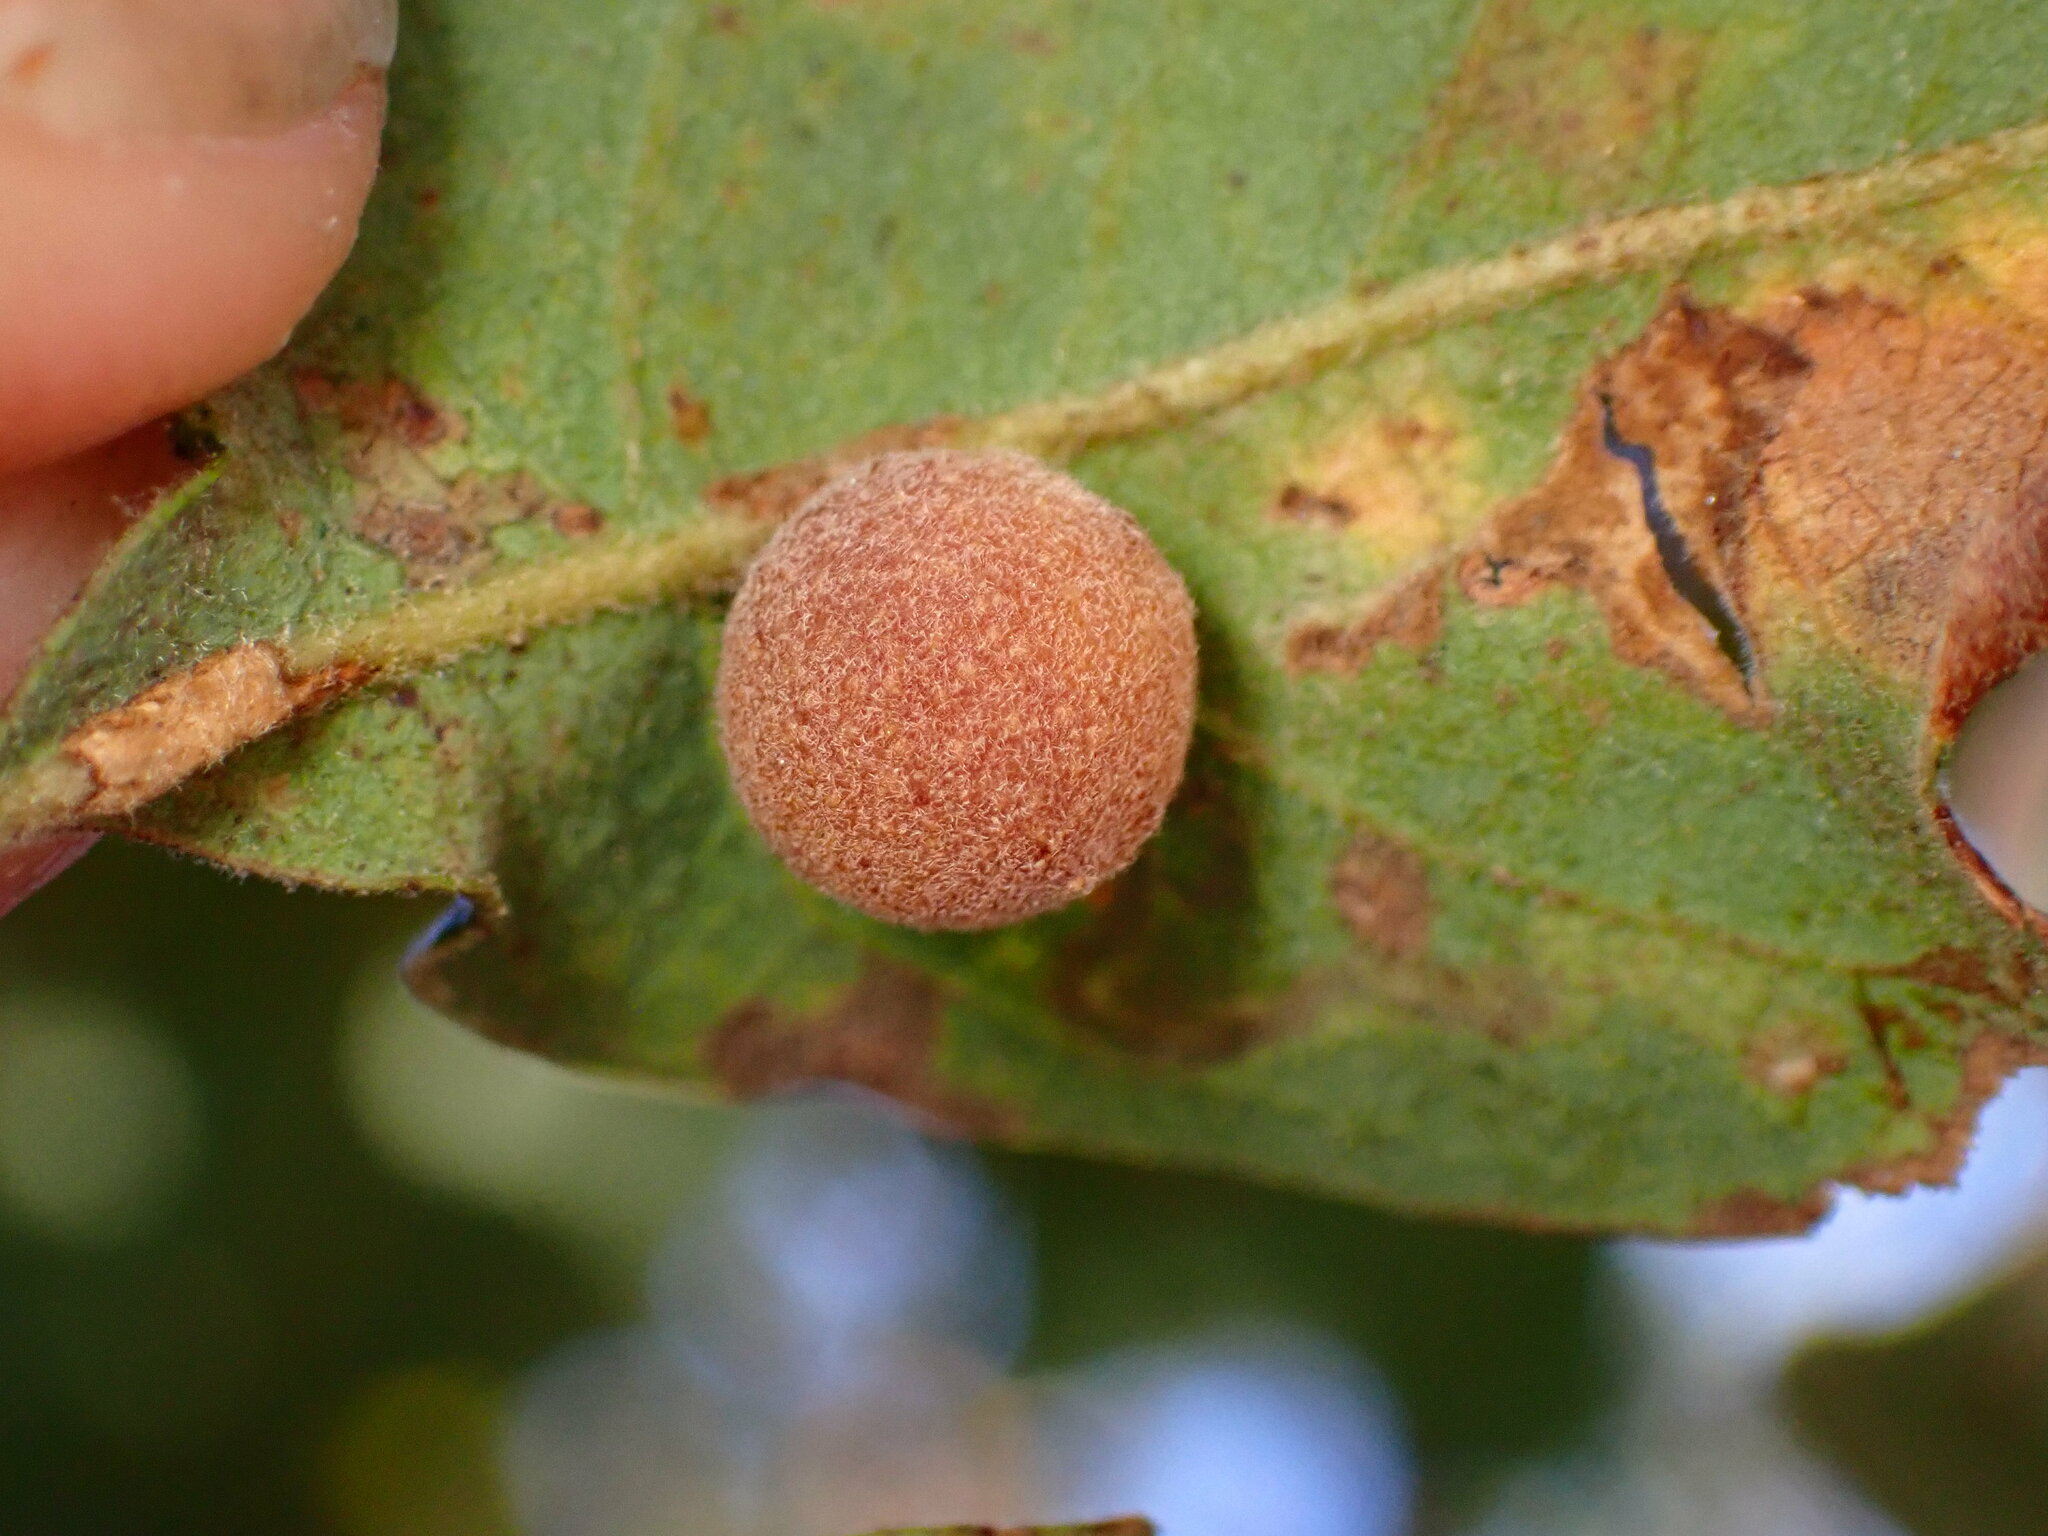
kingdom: Animalia
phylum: Arthropoda
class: Insecta
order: Hymenoptera
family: Cynipidae
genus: Andricus
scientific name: Andricus
